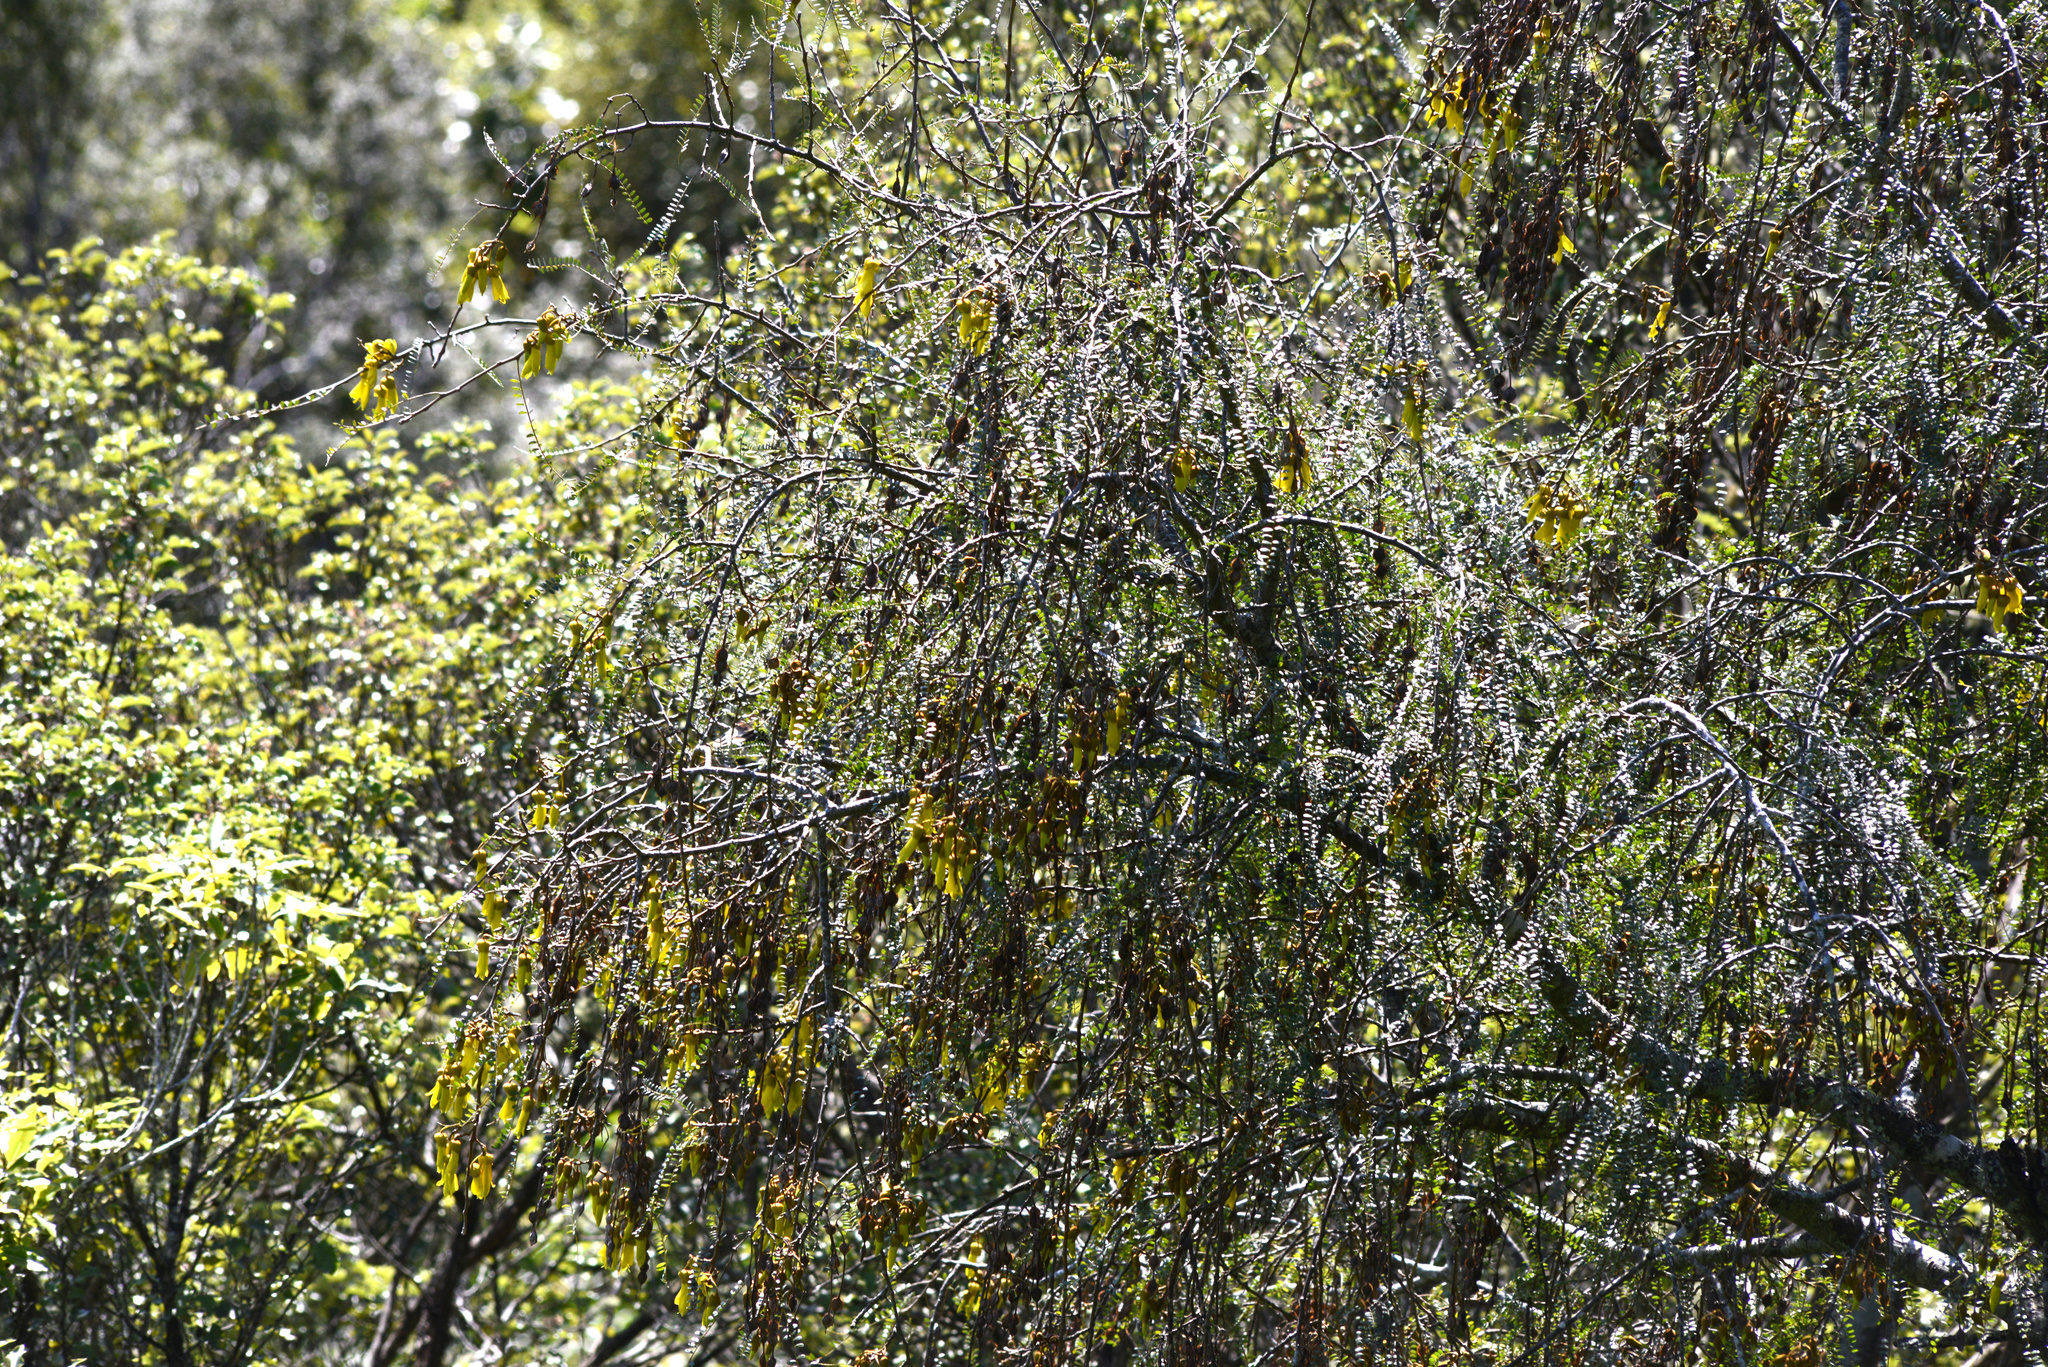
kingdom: Plantae
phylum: Tracheophyta
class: Magnoliopsida
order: Fabales
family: Fabaceae
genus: Sophora
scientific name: Sophora microphylla
